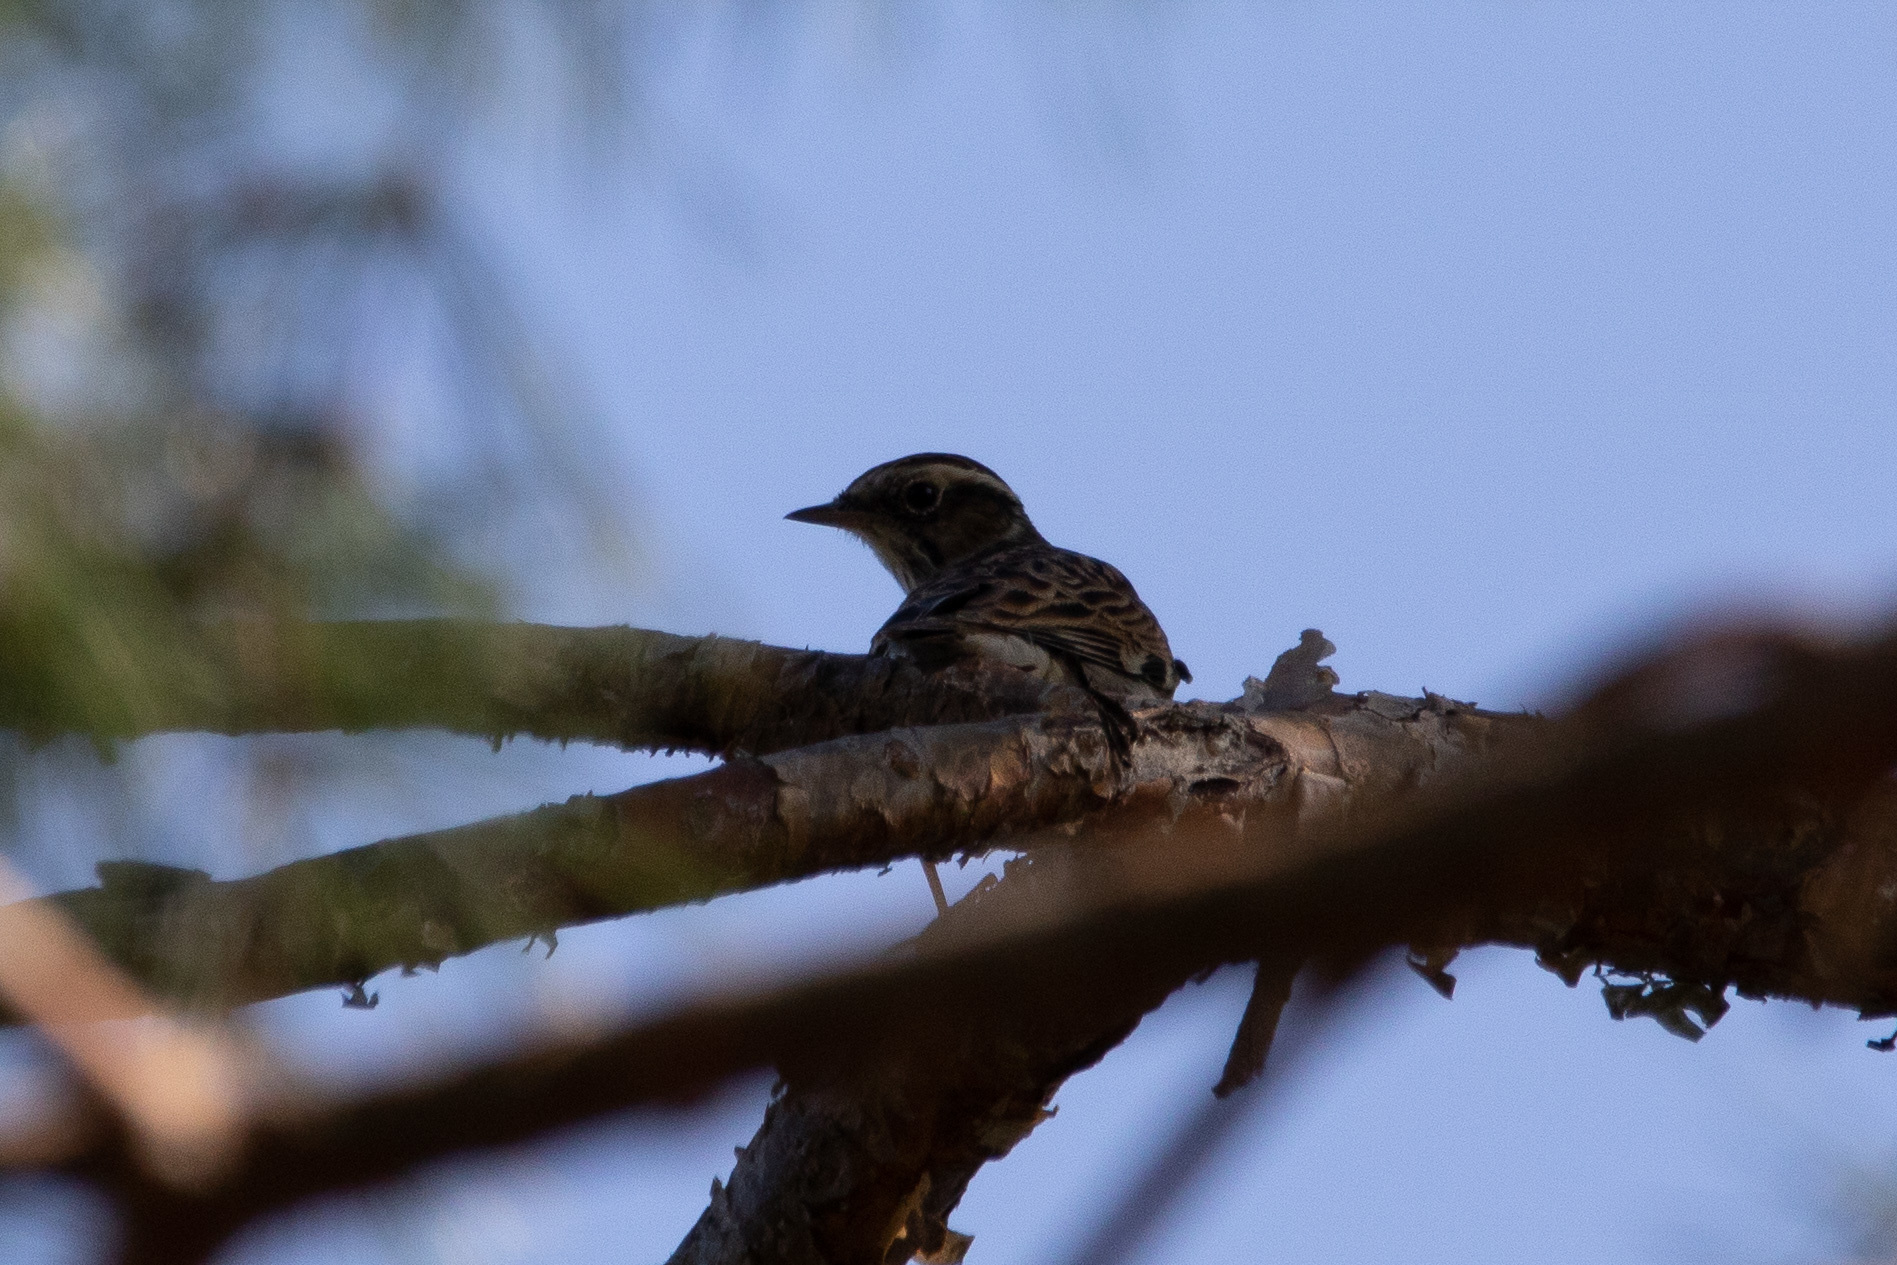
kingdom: Animalia
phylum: Chordata
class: Aves
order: Passeriformes
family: Alaudidae
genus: Lullula
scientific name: Lullula arborea
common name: Woodlark
